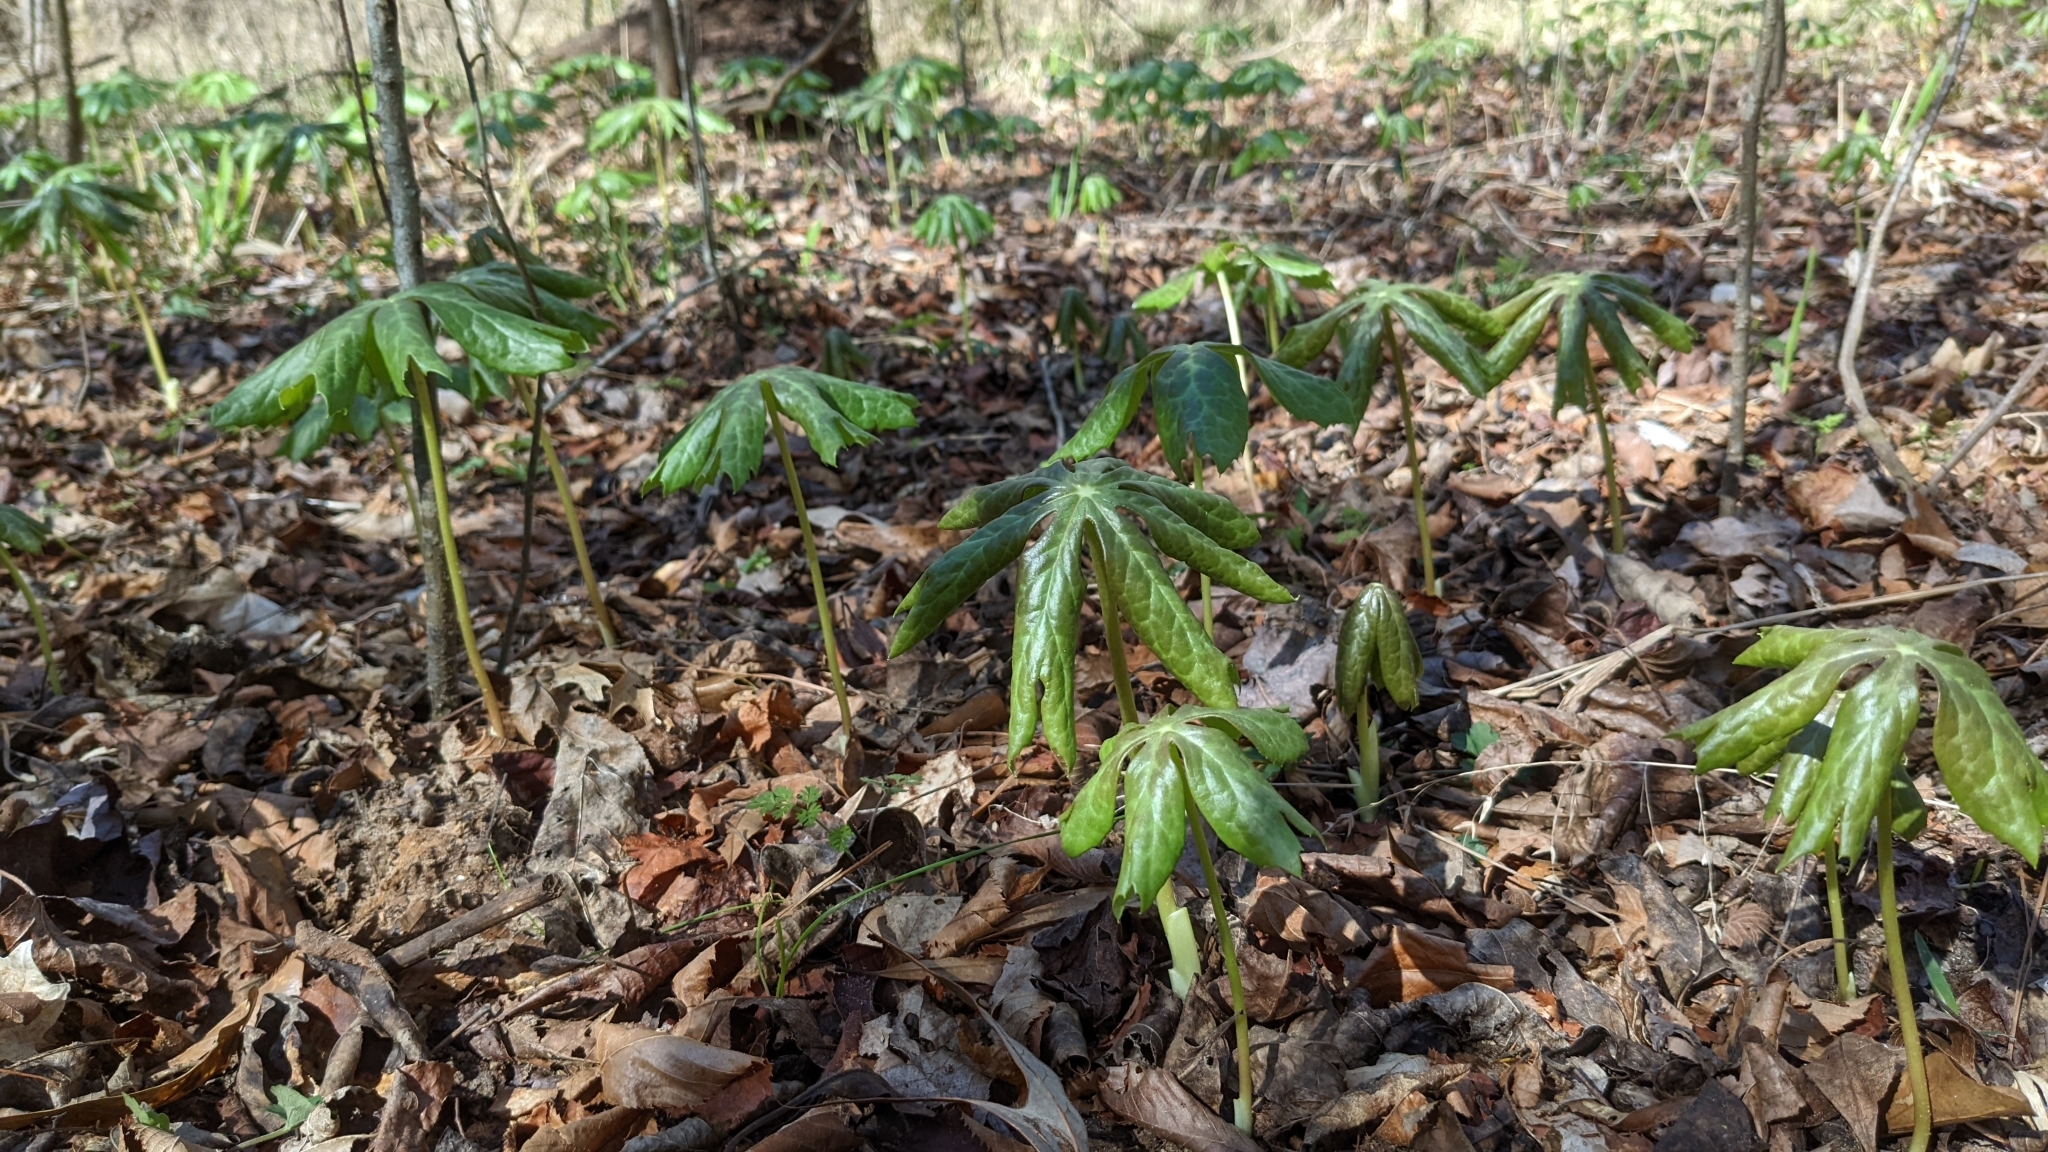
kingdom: Plantae
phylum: Tracheophyta
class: Magnoliopsida
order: Ranunculales
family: Berberidaceae
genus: Podophyllum
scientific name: Podophyllum peltatum
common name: Wild mandrake
